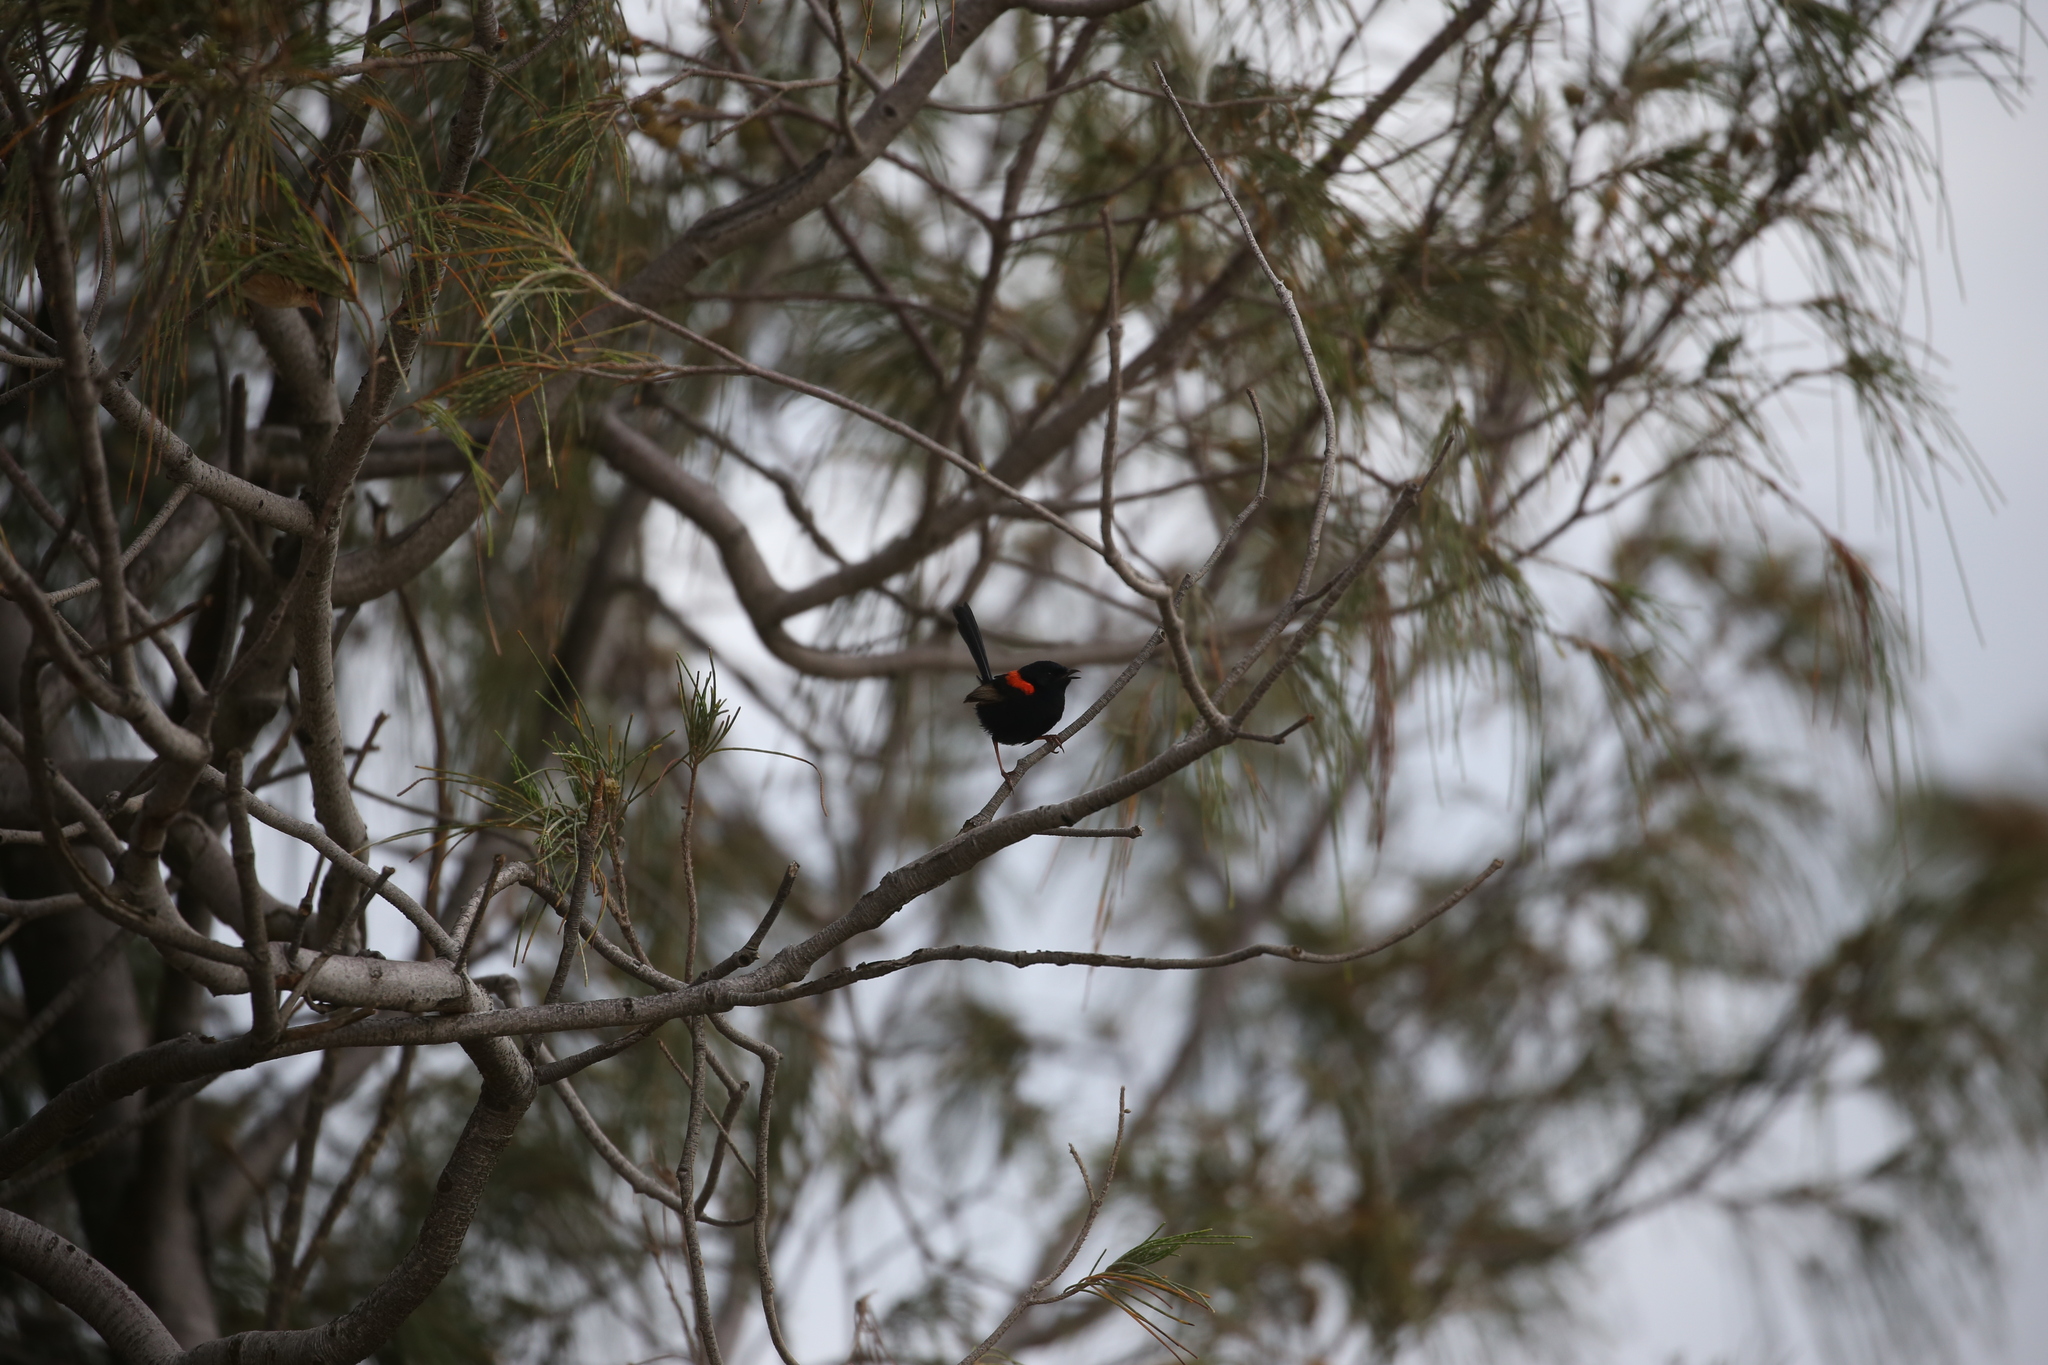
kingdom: Animalia
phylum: Chordata
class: Aves
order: Passeriformes
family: Maluridae
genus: Malurus
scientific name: Malurus melanocephalus
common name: Red-backed fairywren
